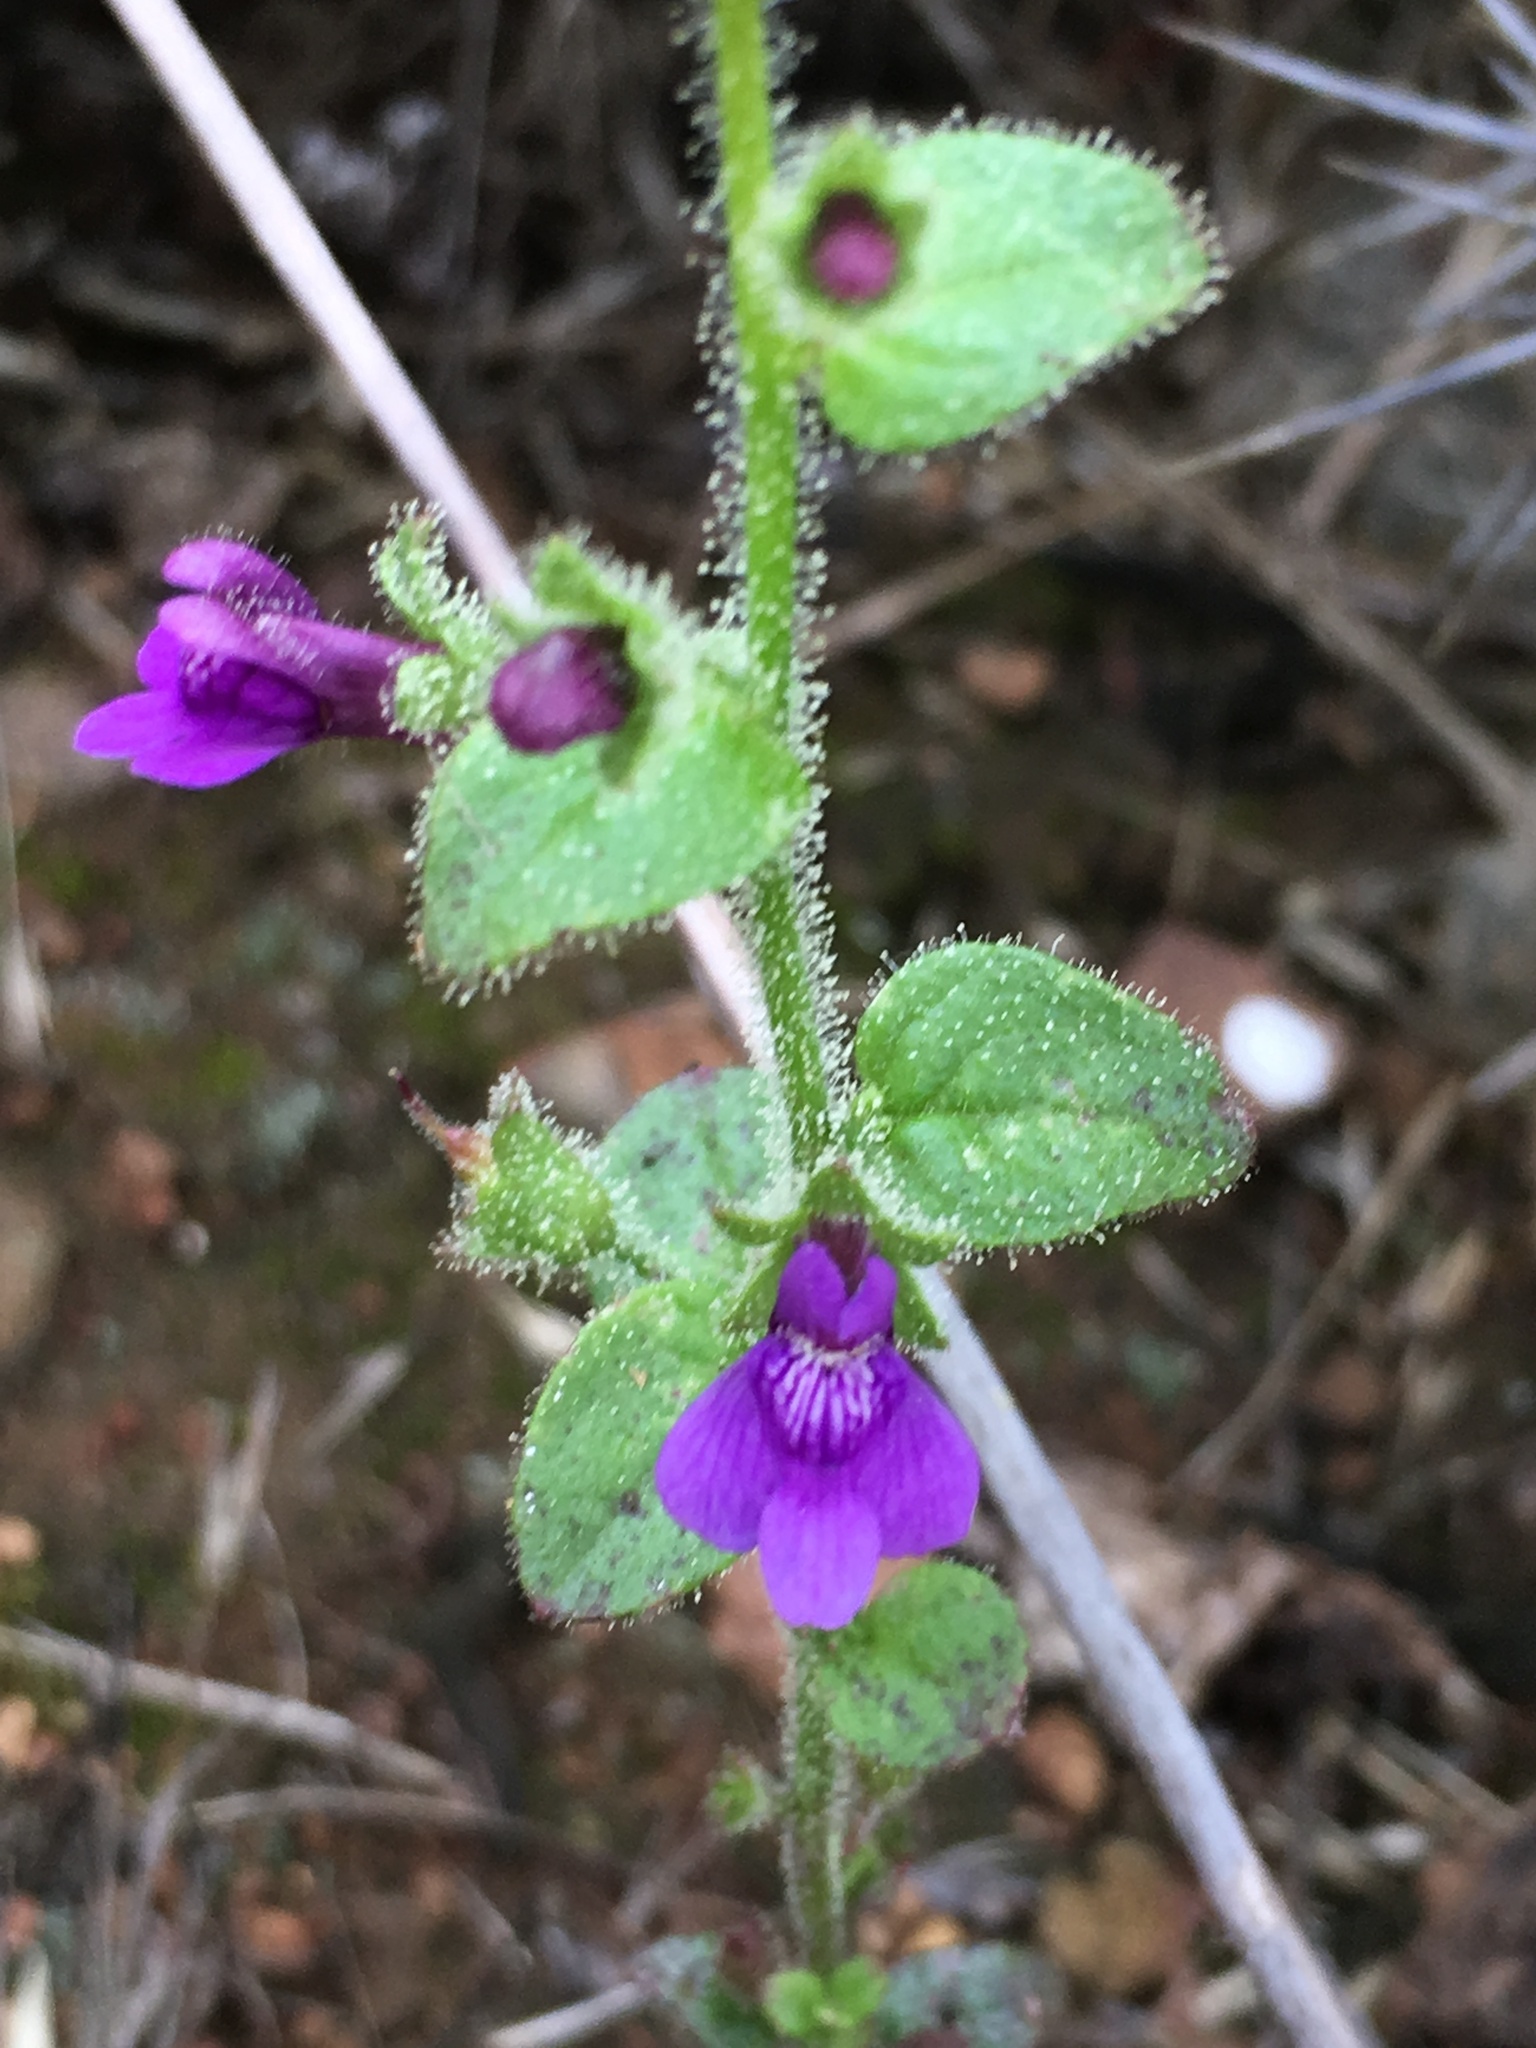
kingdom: Plantae
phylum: Tracheophyta
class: Magnoliopsida
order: Lamiales
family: Plantaginaceae
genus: Sairocarpus
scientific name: Sairocarpus nuttallianus
